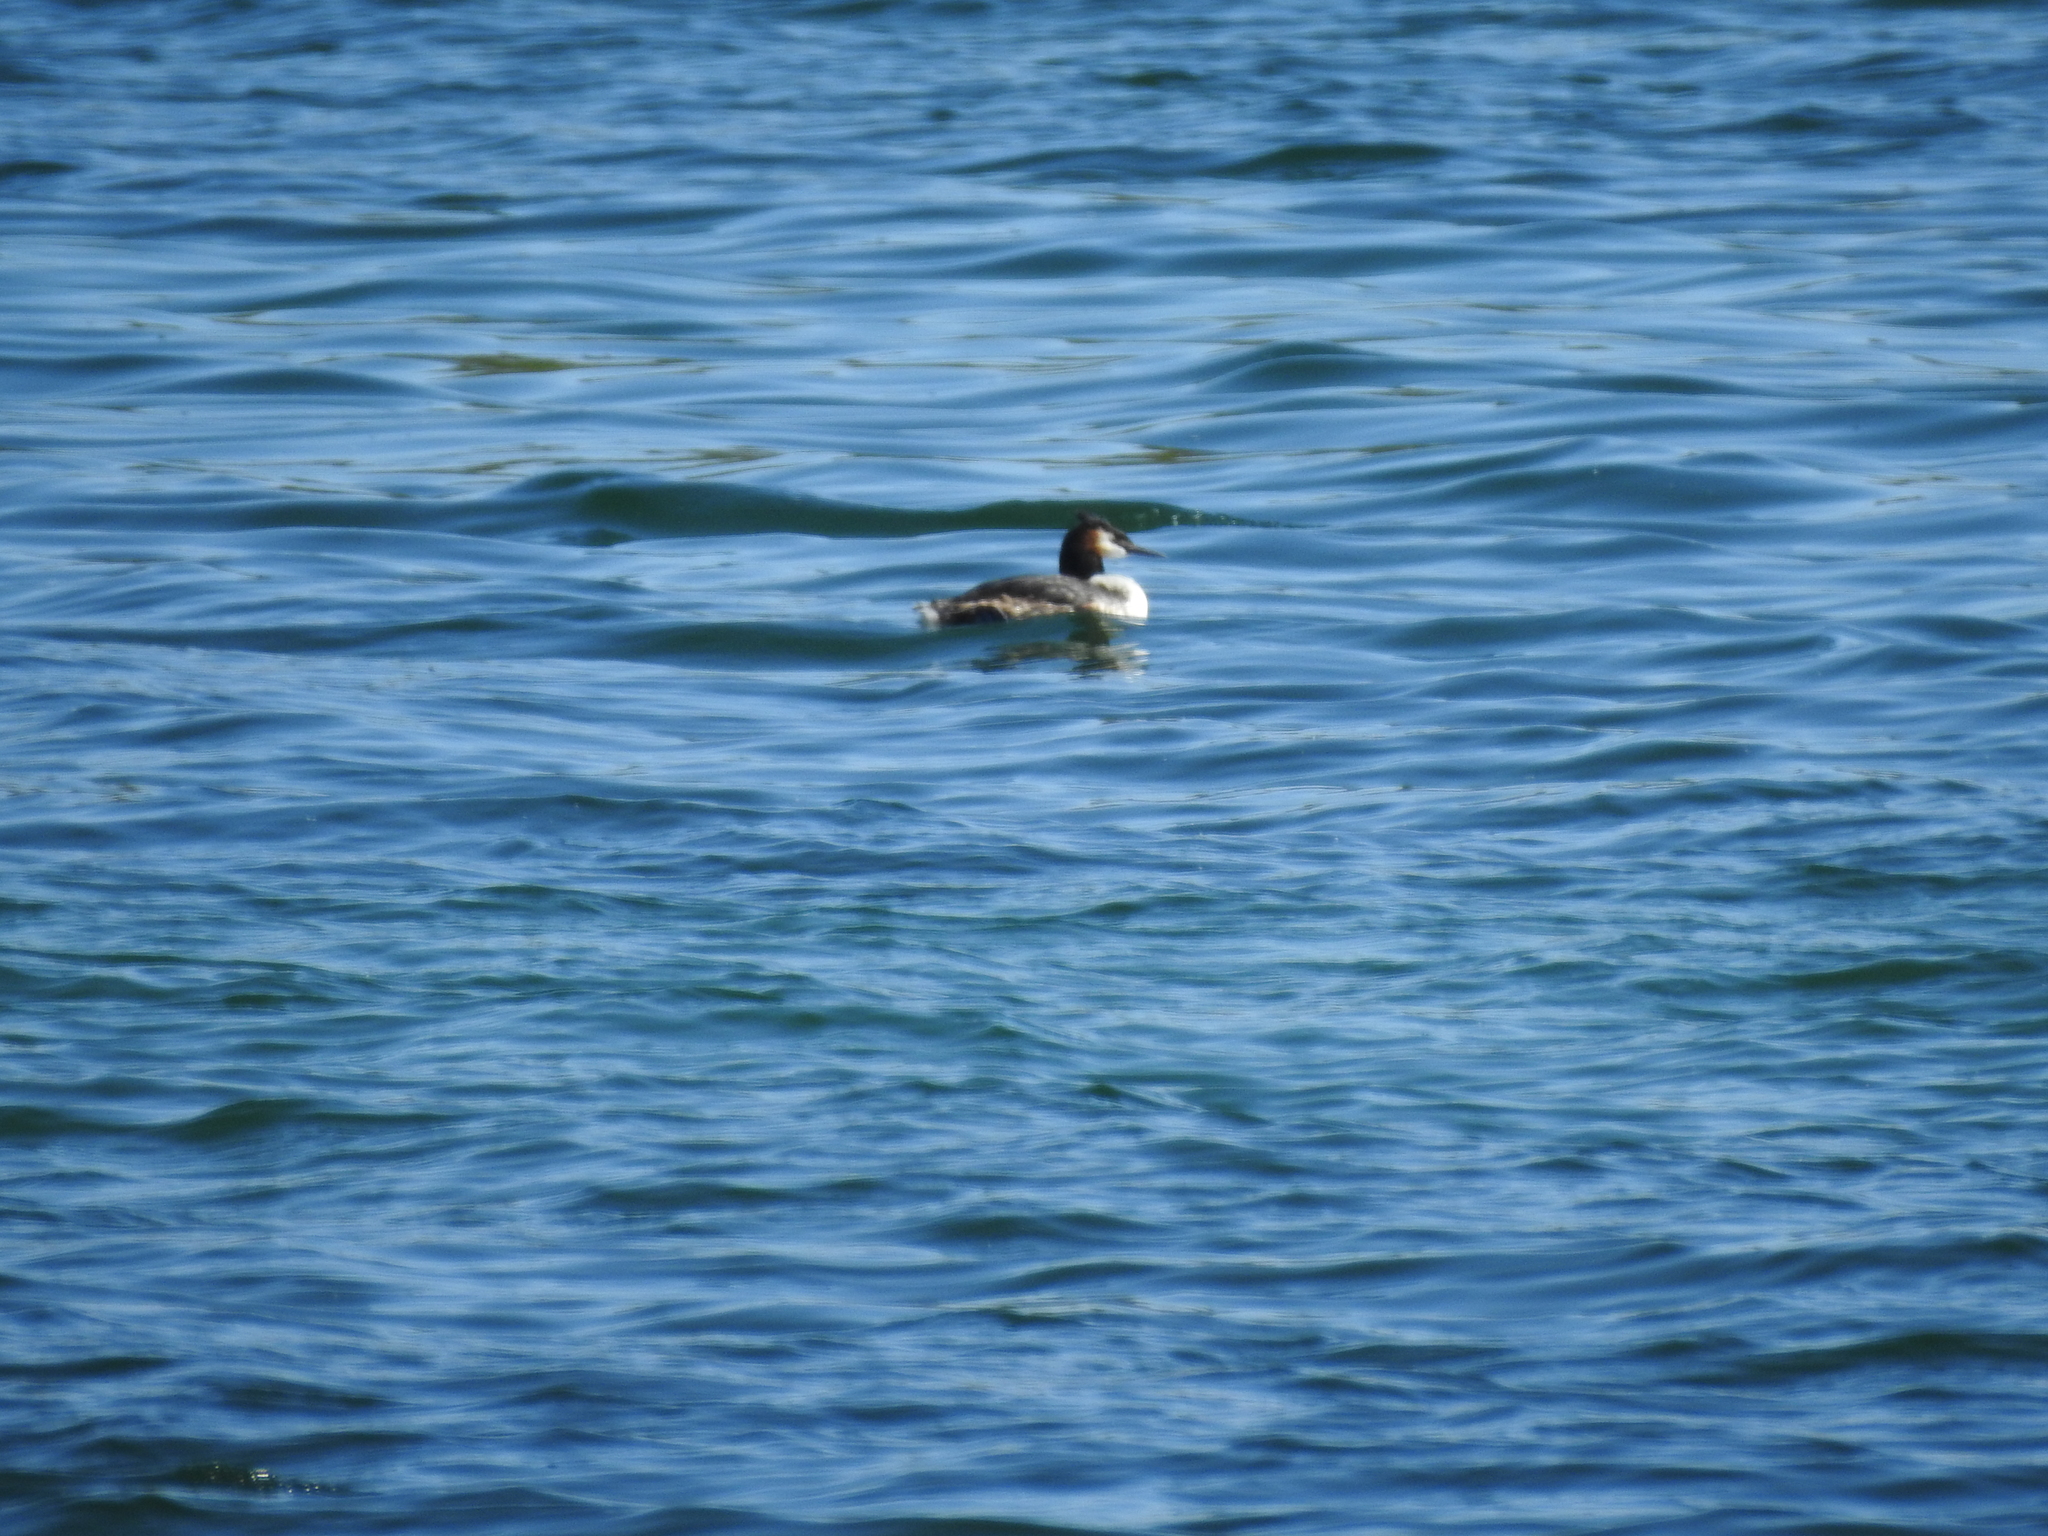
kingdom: Animalia
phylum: Chordata
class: Aves
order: Podicipediformes
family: Podicipedidae
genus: Podiceps
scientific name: Podiceps cristatus
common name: Great crested grebe
